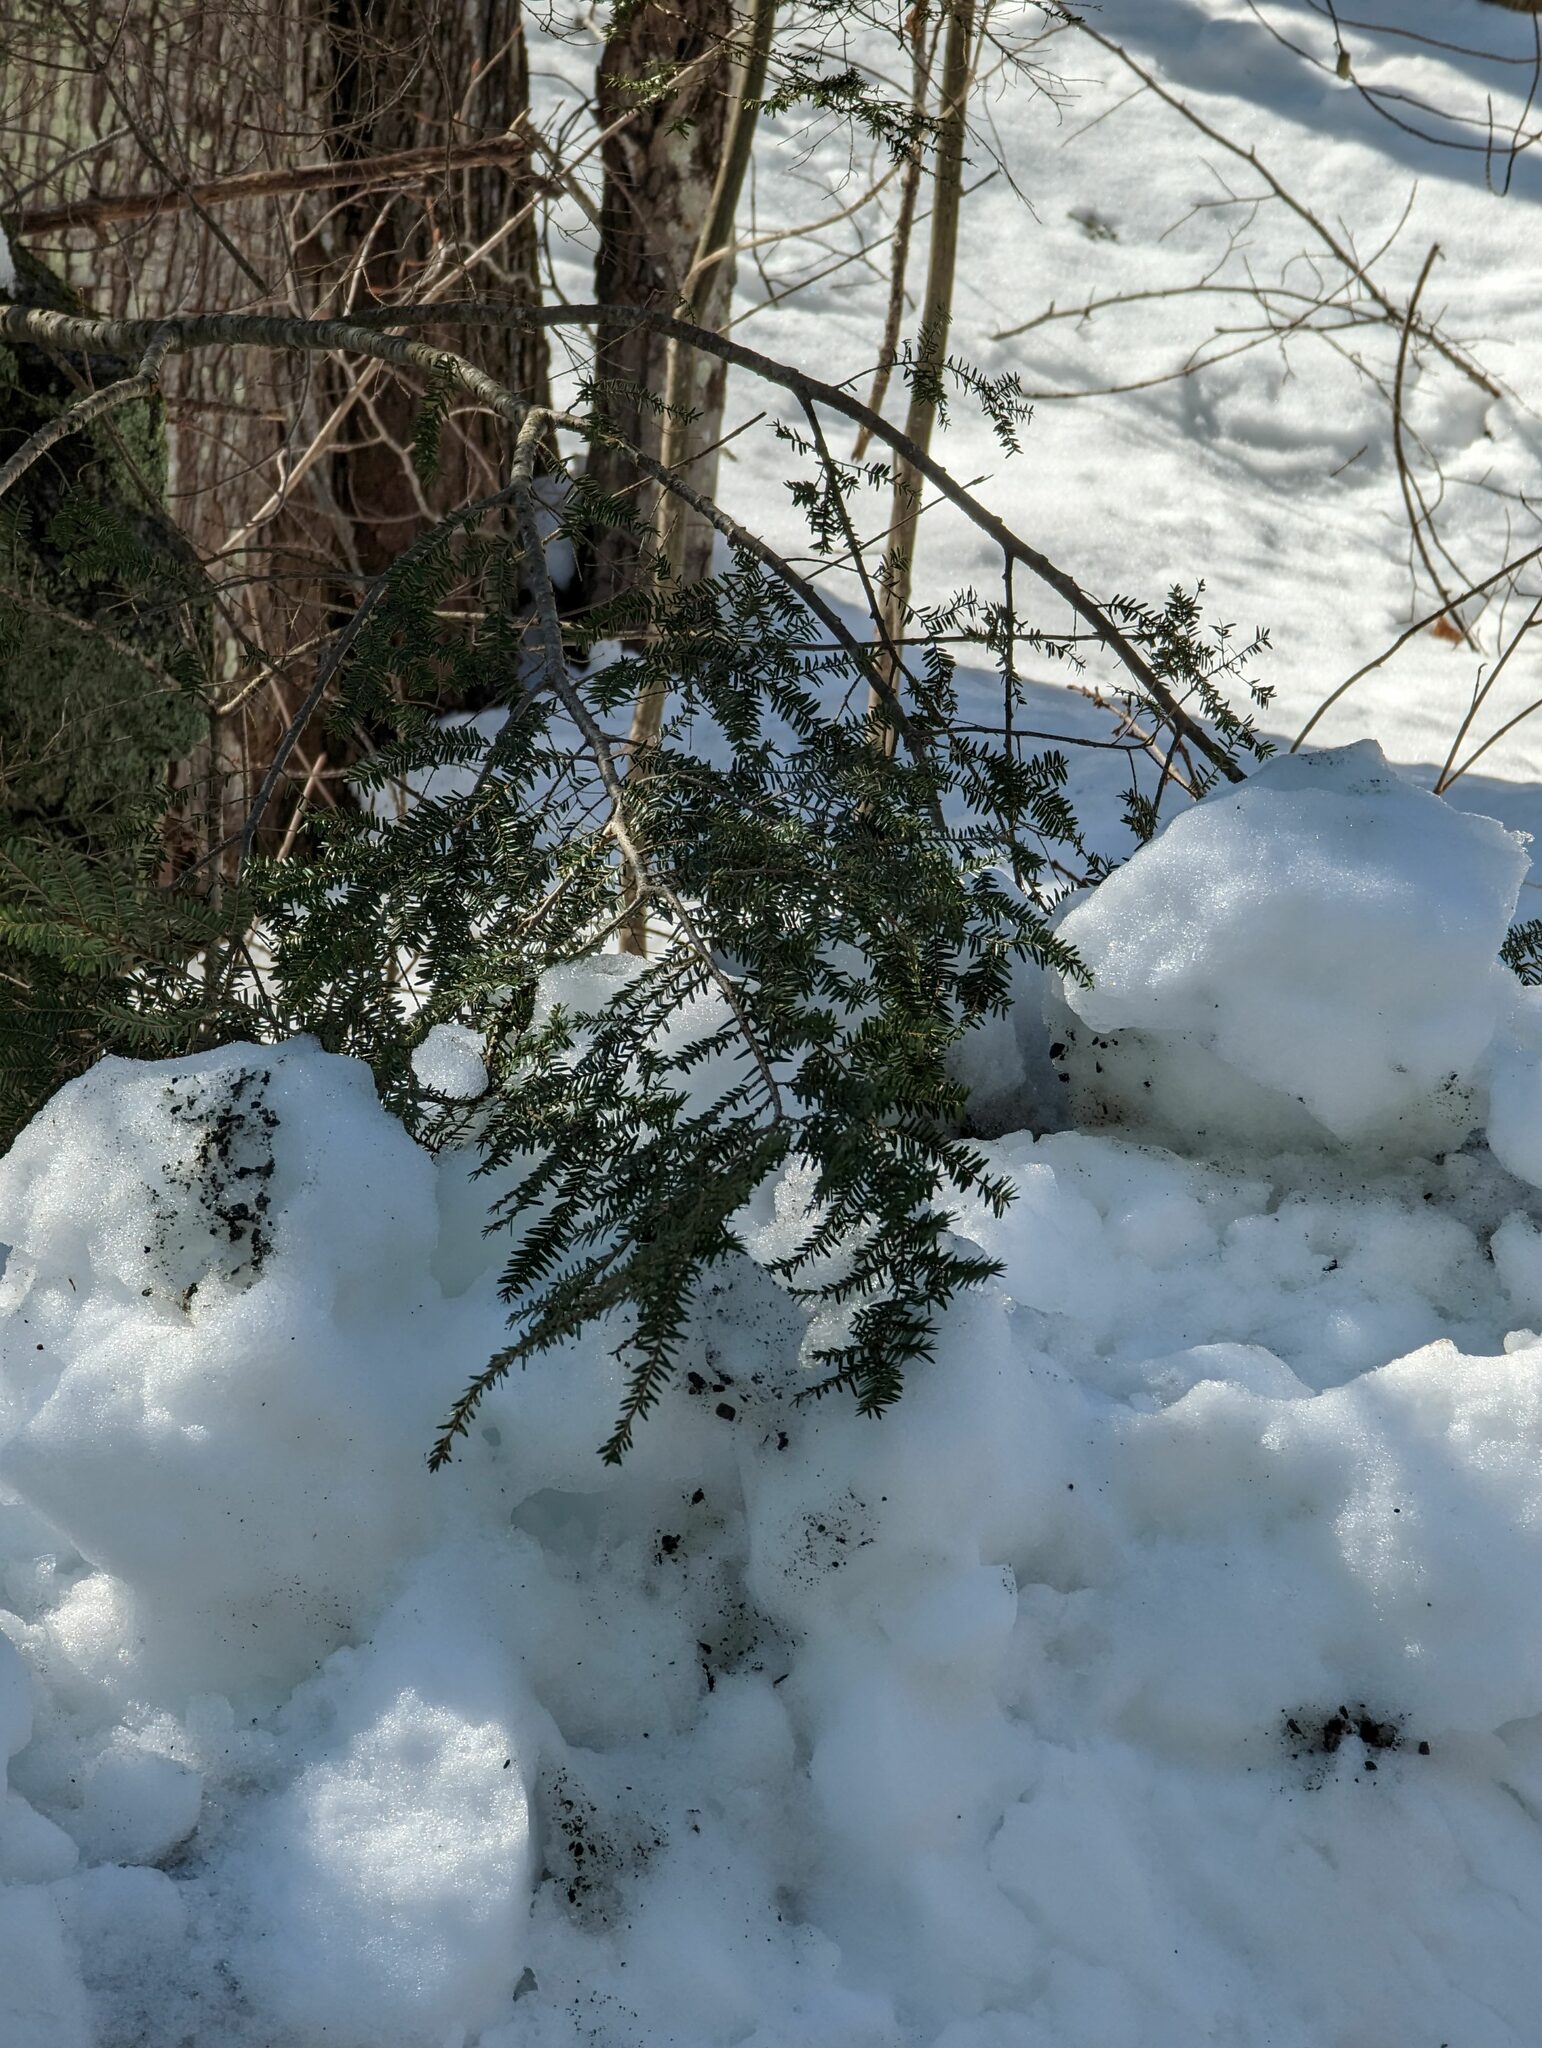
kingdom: Plantae
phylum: Tracheophyta
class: Pinopsida
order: Pinales
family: Pinaceae
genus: Tsuga
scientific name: Tsuga canadensis
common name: Eastern hemlock
